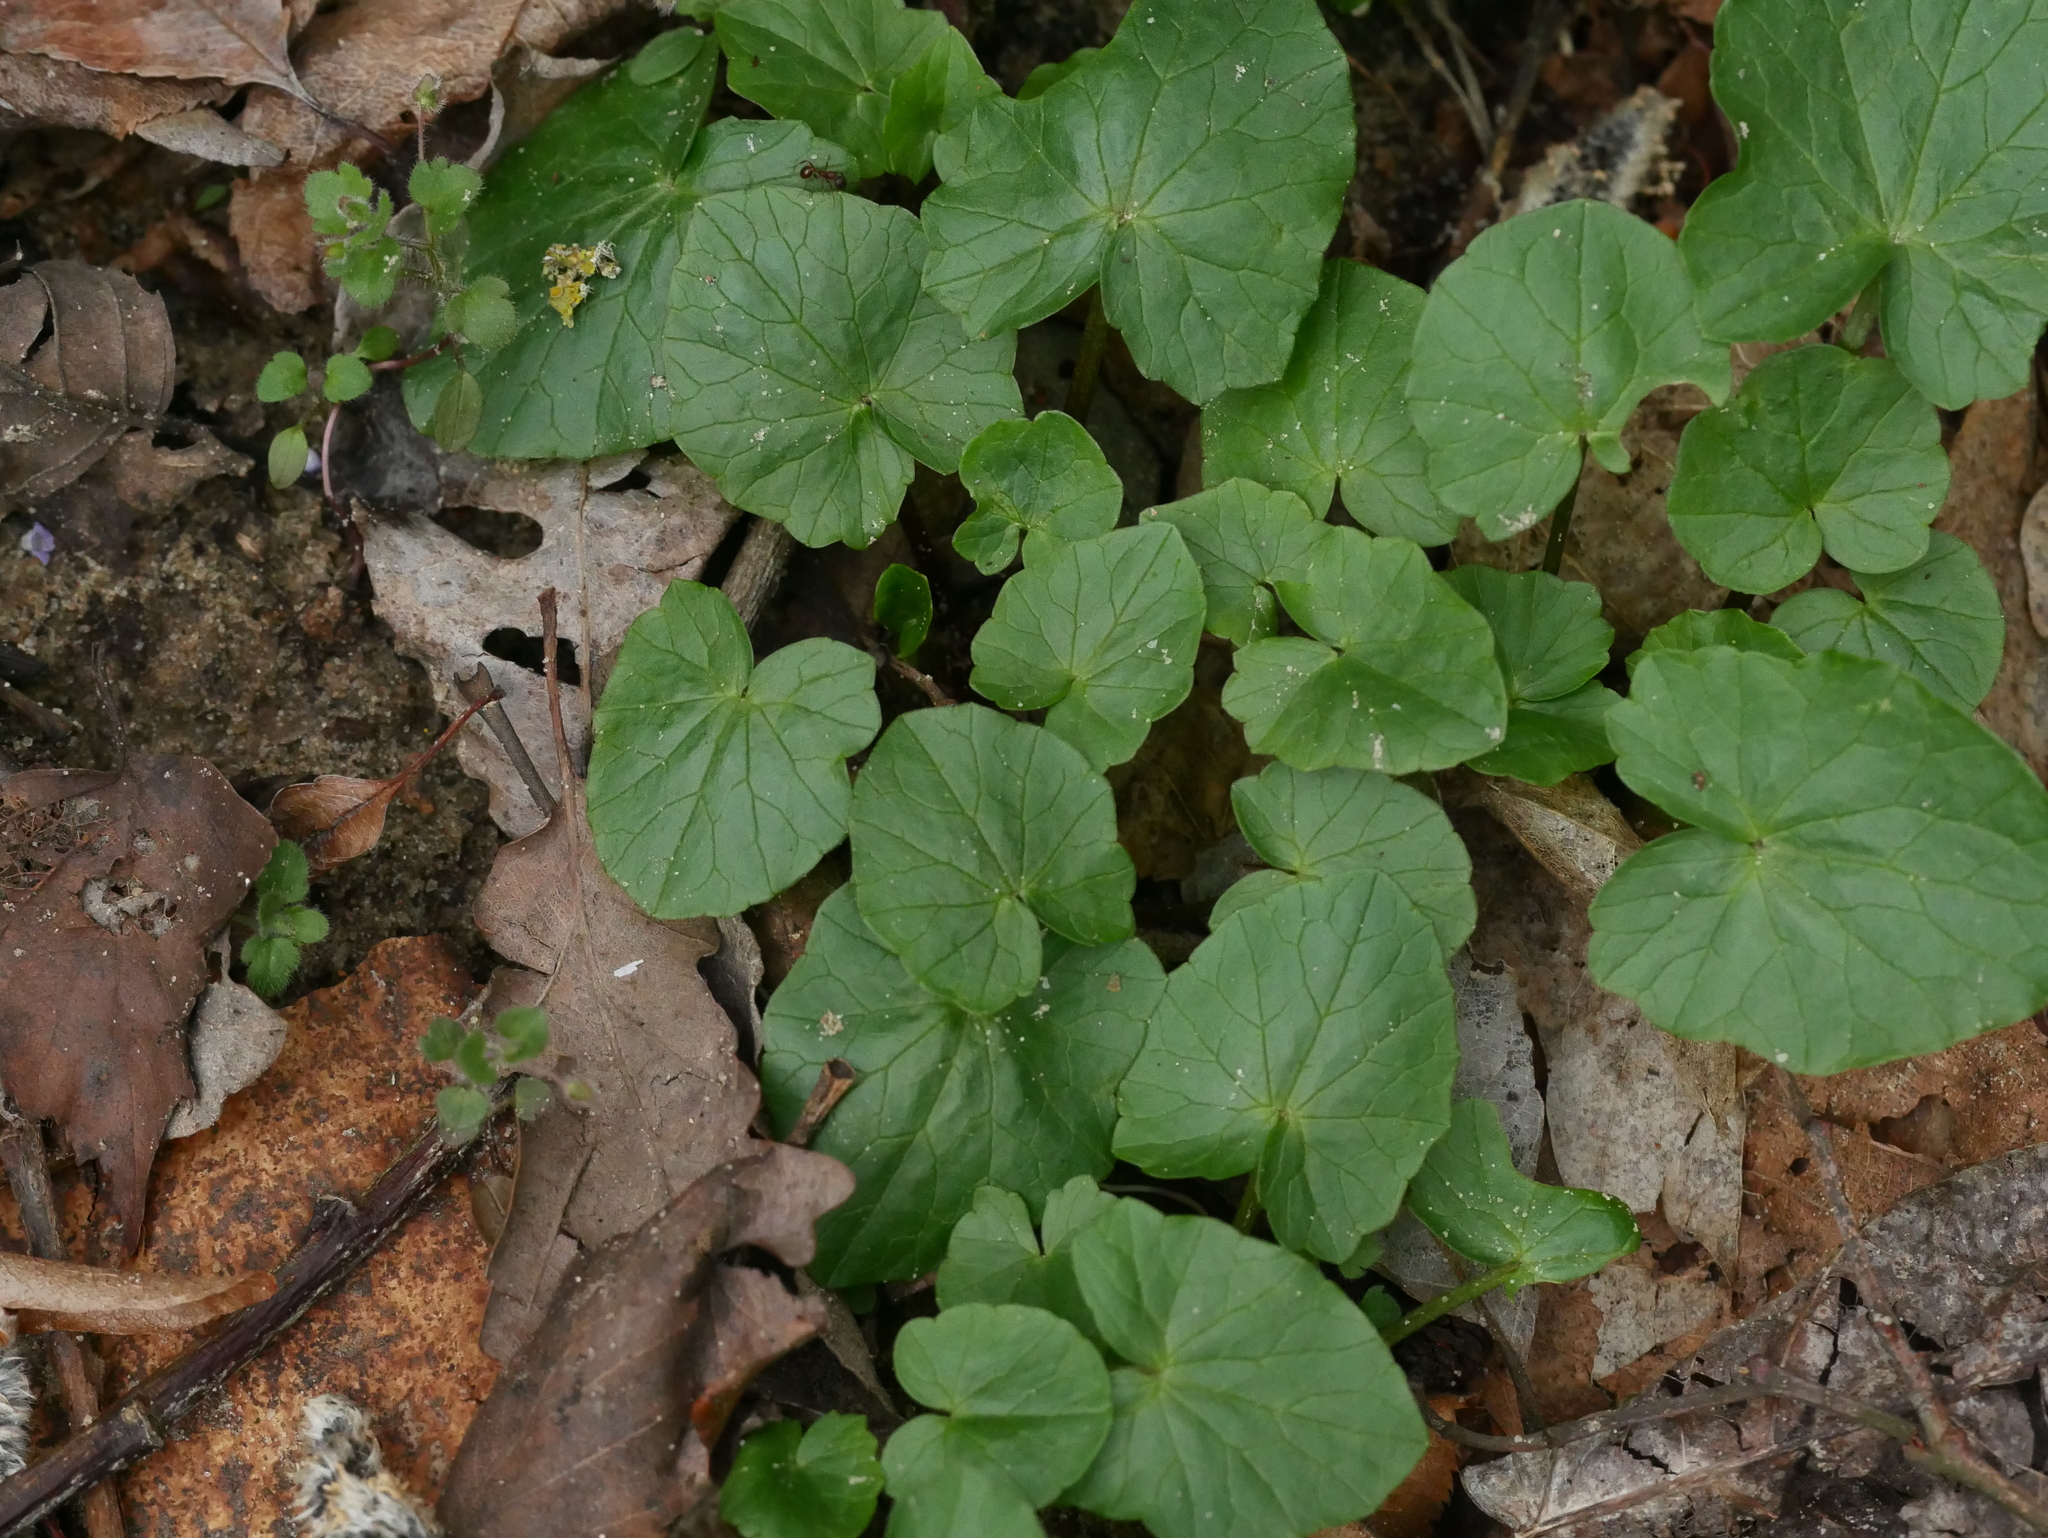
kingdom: Plantae
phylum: Tracheophyta
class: Magnoliopsida
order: Ranunculales
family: Ranunculaceae
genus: Ficaria
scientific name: Ficaria verna
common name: Lesser celandine
